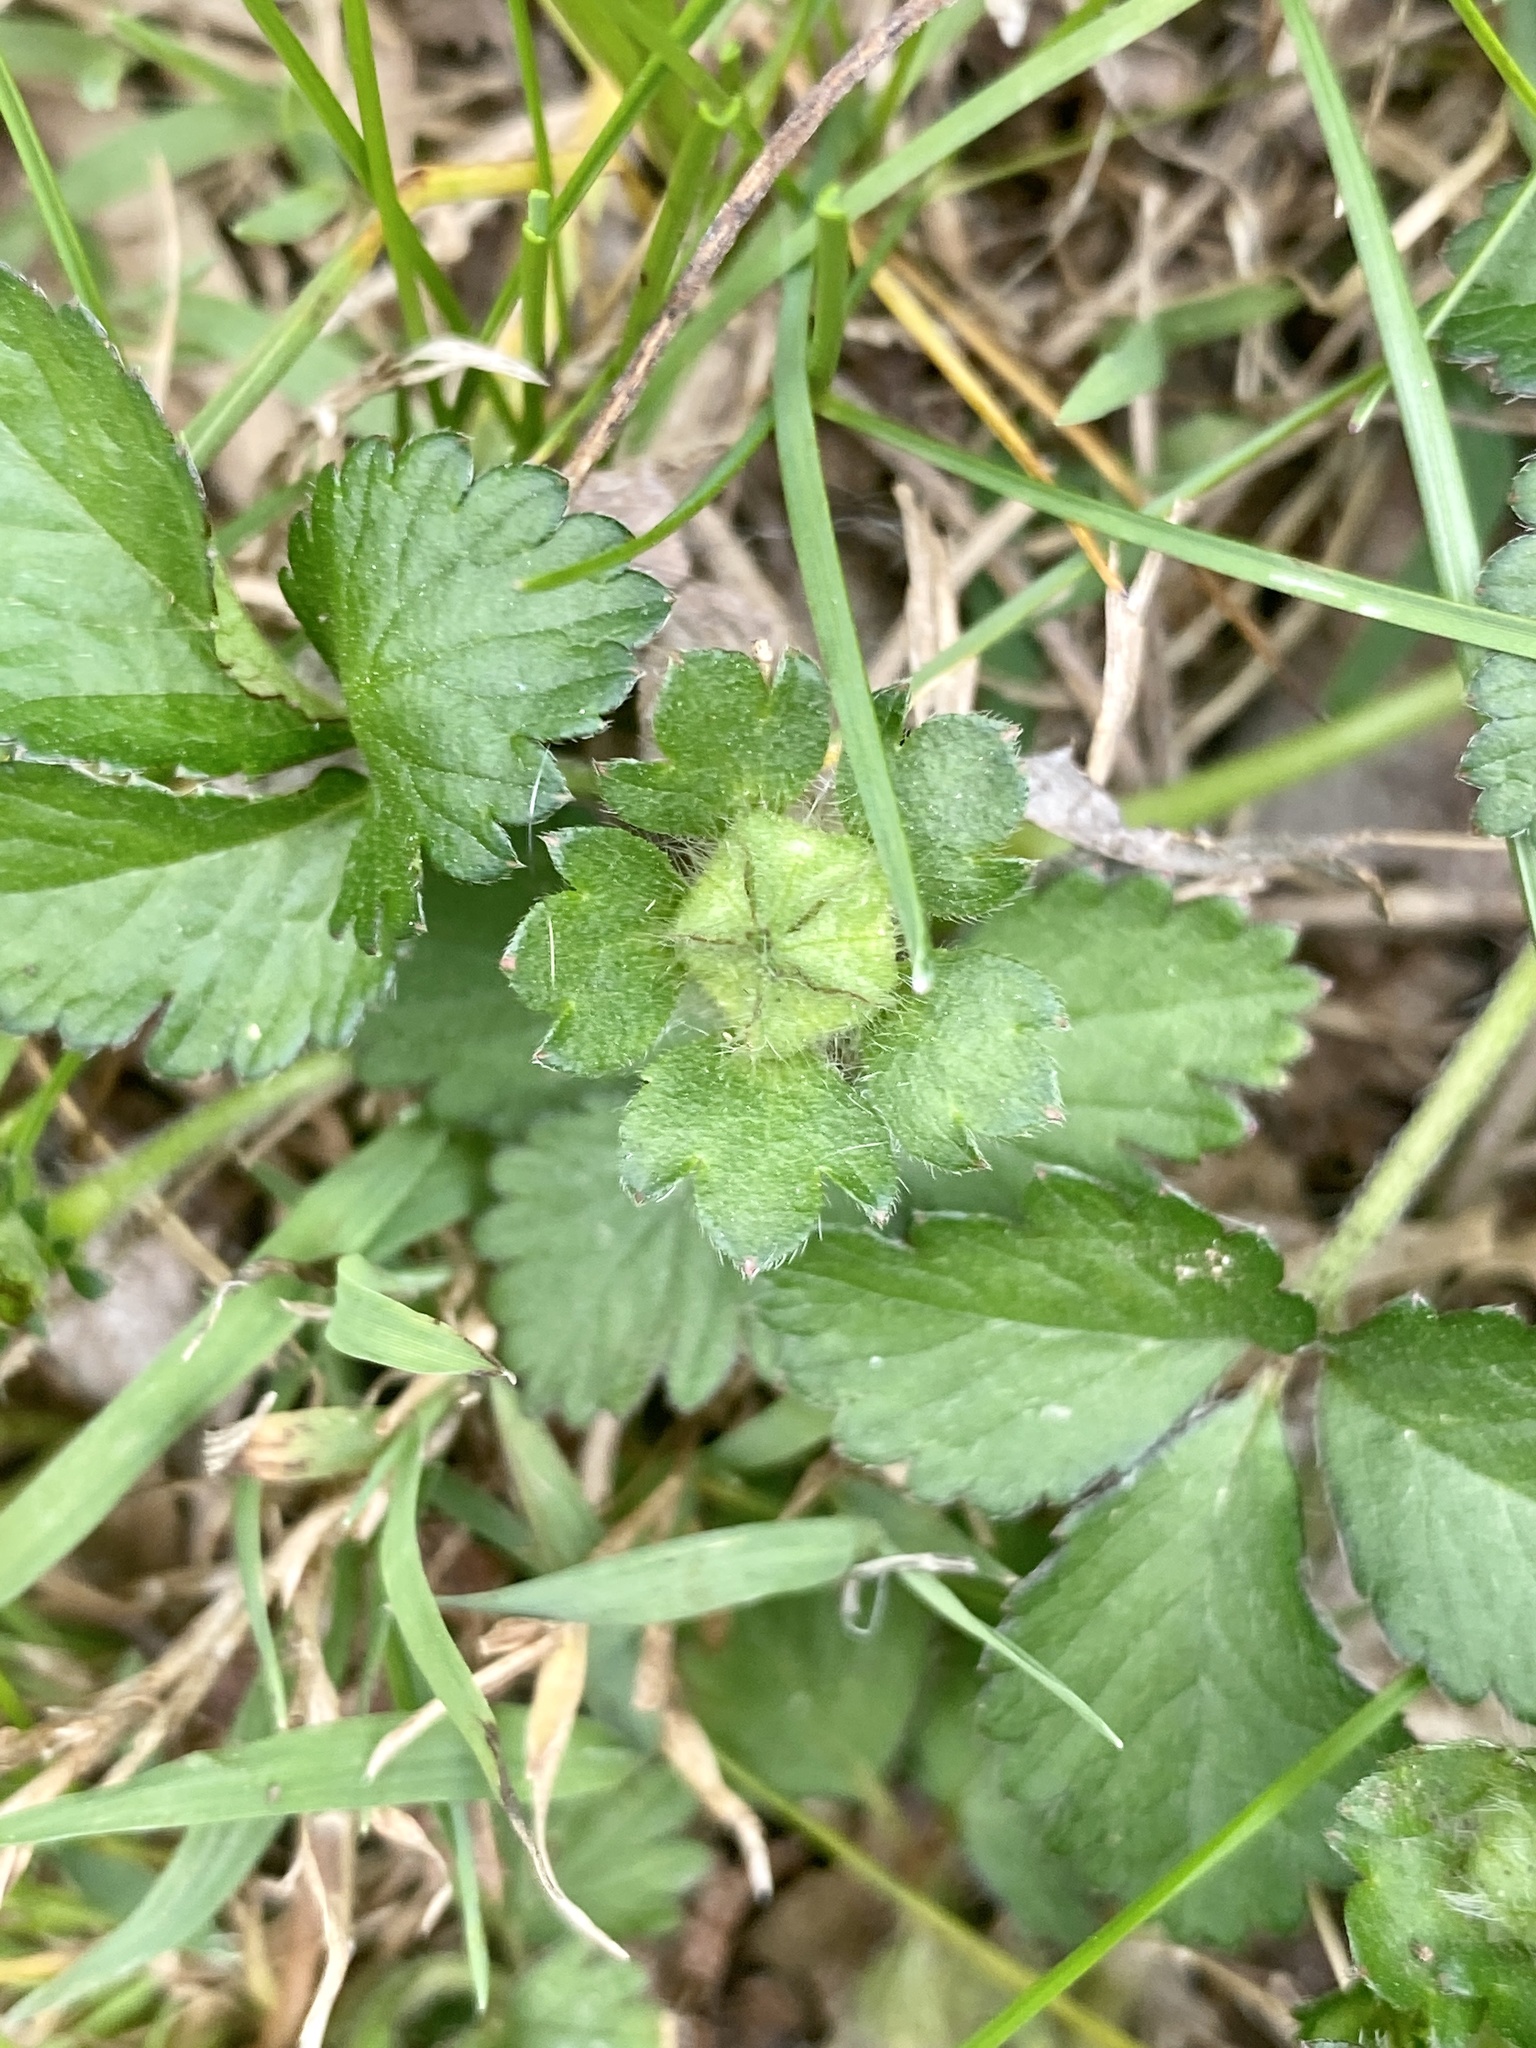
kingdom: Plantae
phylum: Tracheophyta
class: Magnoliopsida
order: Rosales
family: Rosaceae
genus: Potentilla
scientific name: Potentilla indica
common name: Yellow-flowered strawberry
